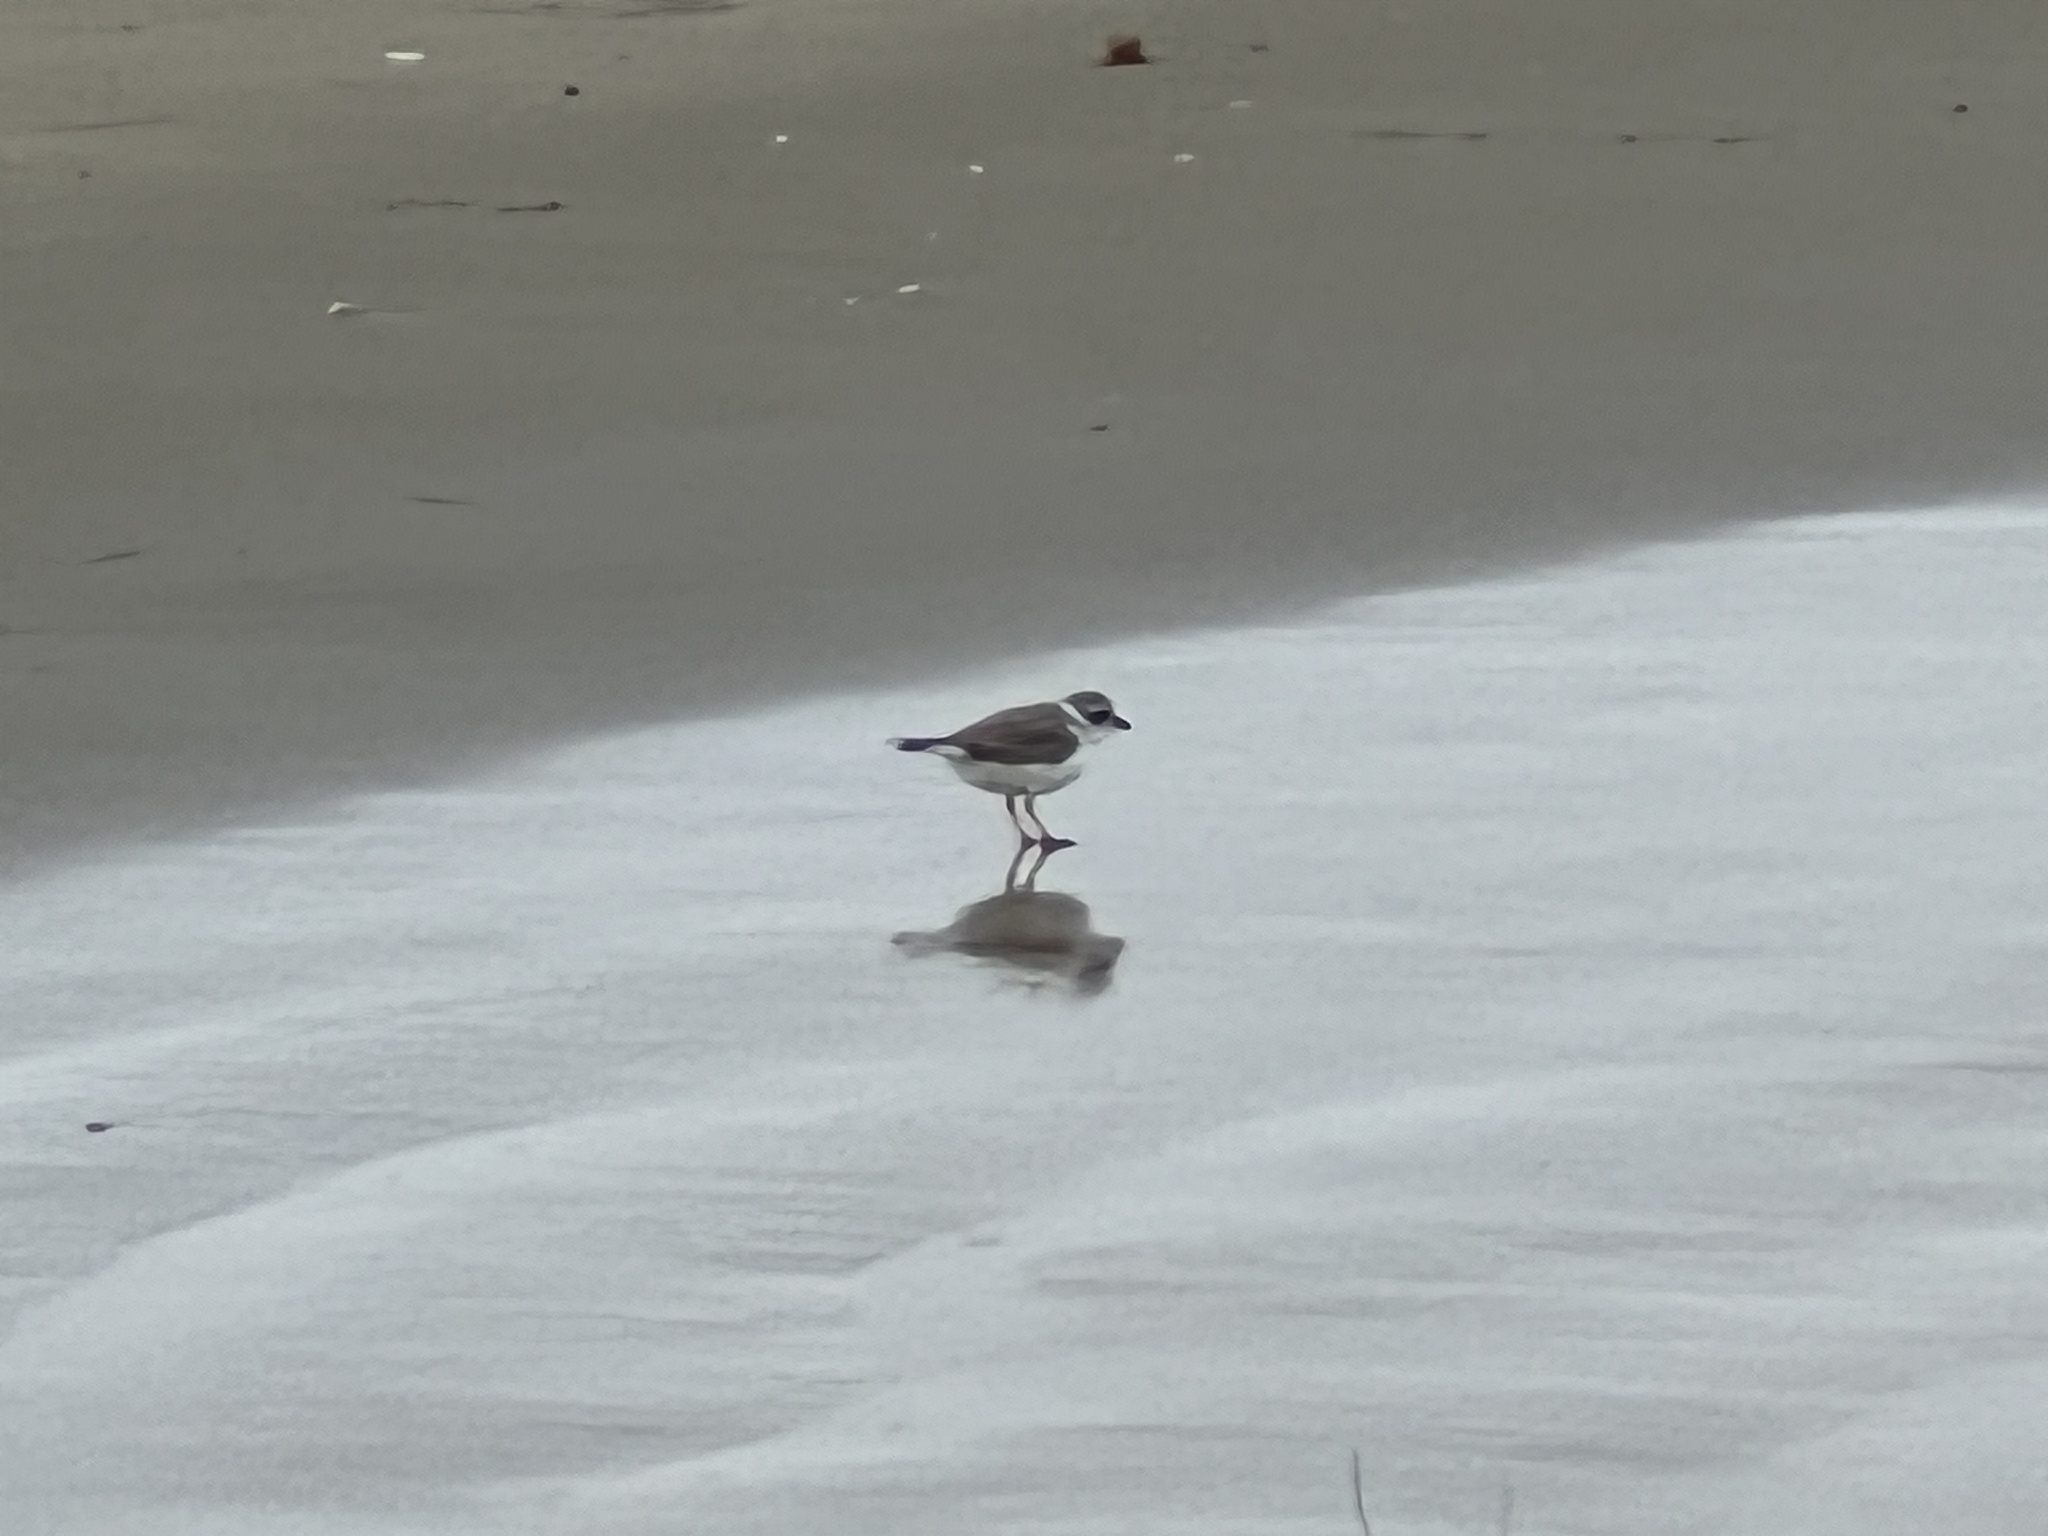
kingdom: Animalia
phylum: Chordata
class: Aves
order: Charadriiformes
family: Charadriidae
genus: Charadrius
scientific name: Charadrius melodus
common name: Piping plover
